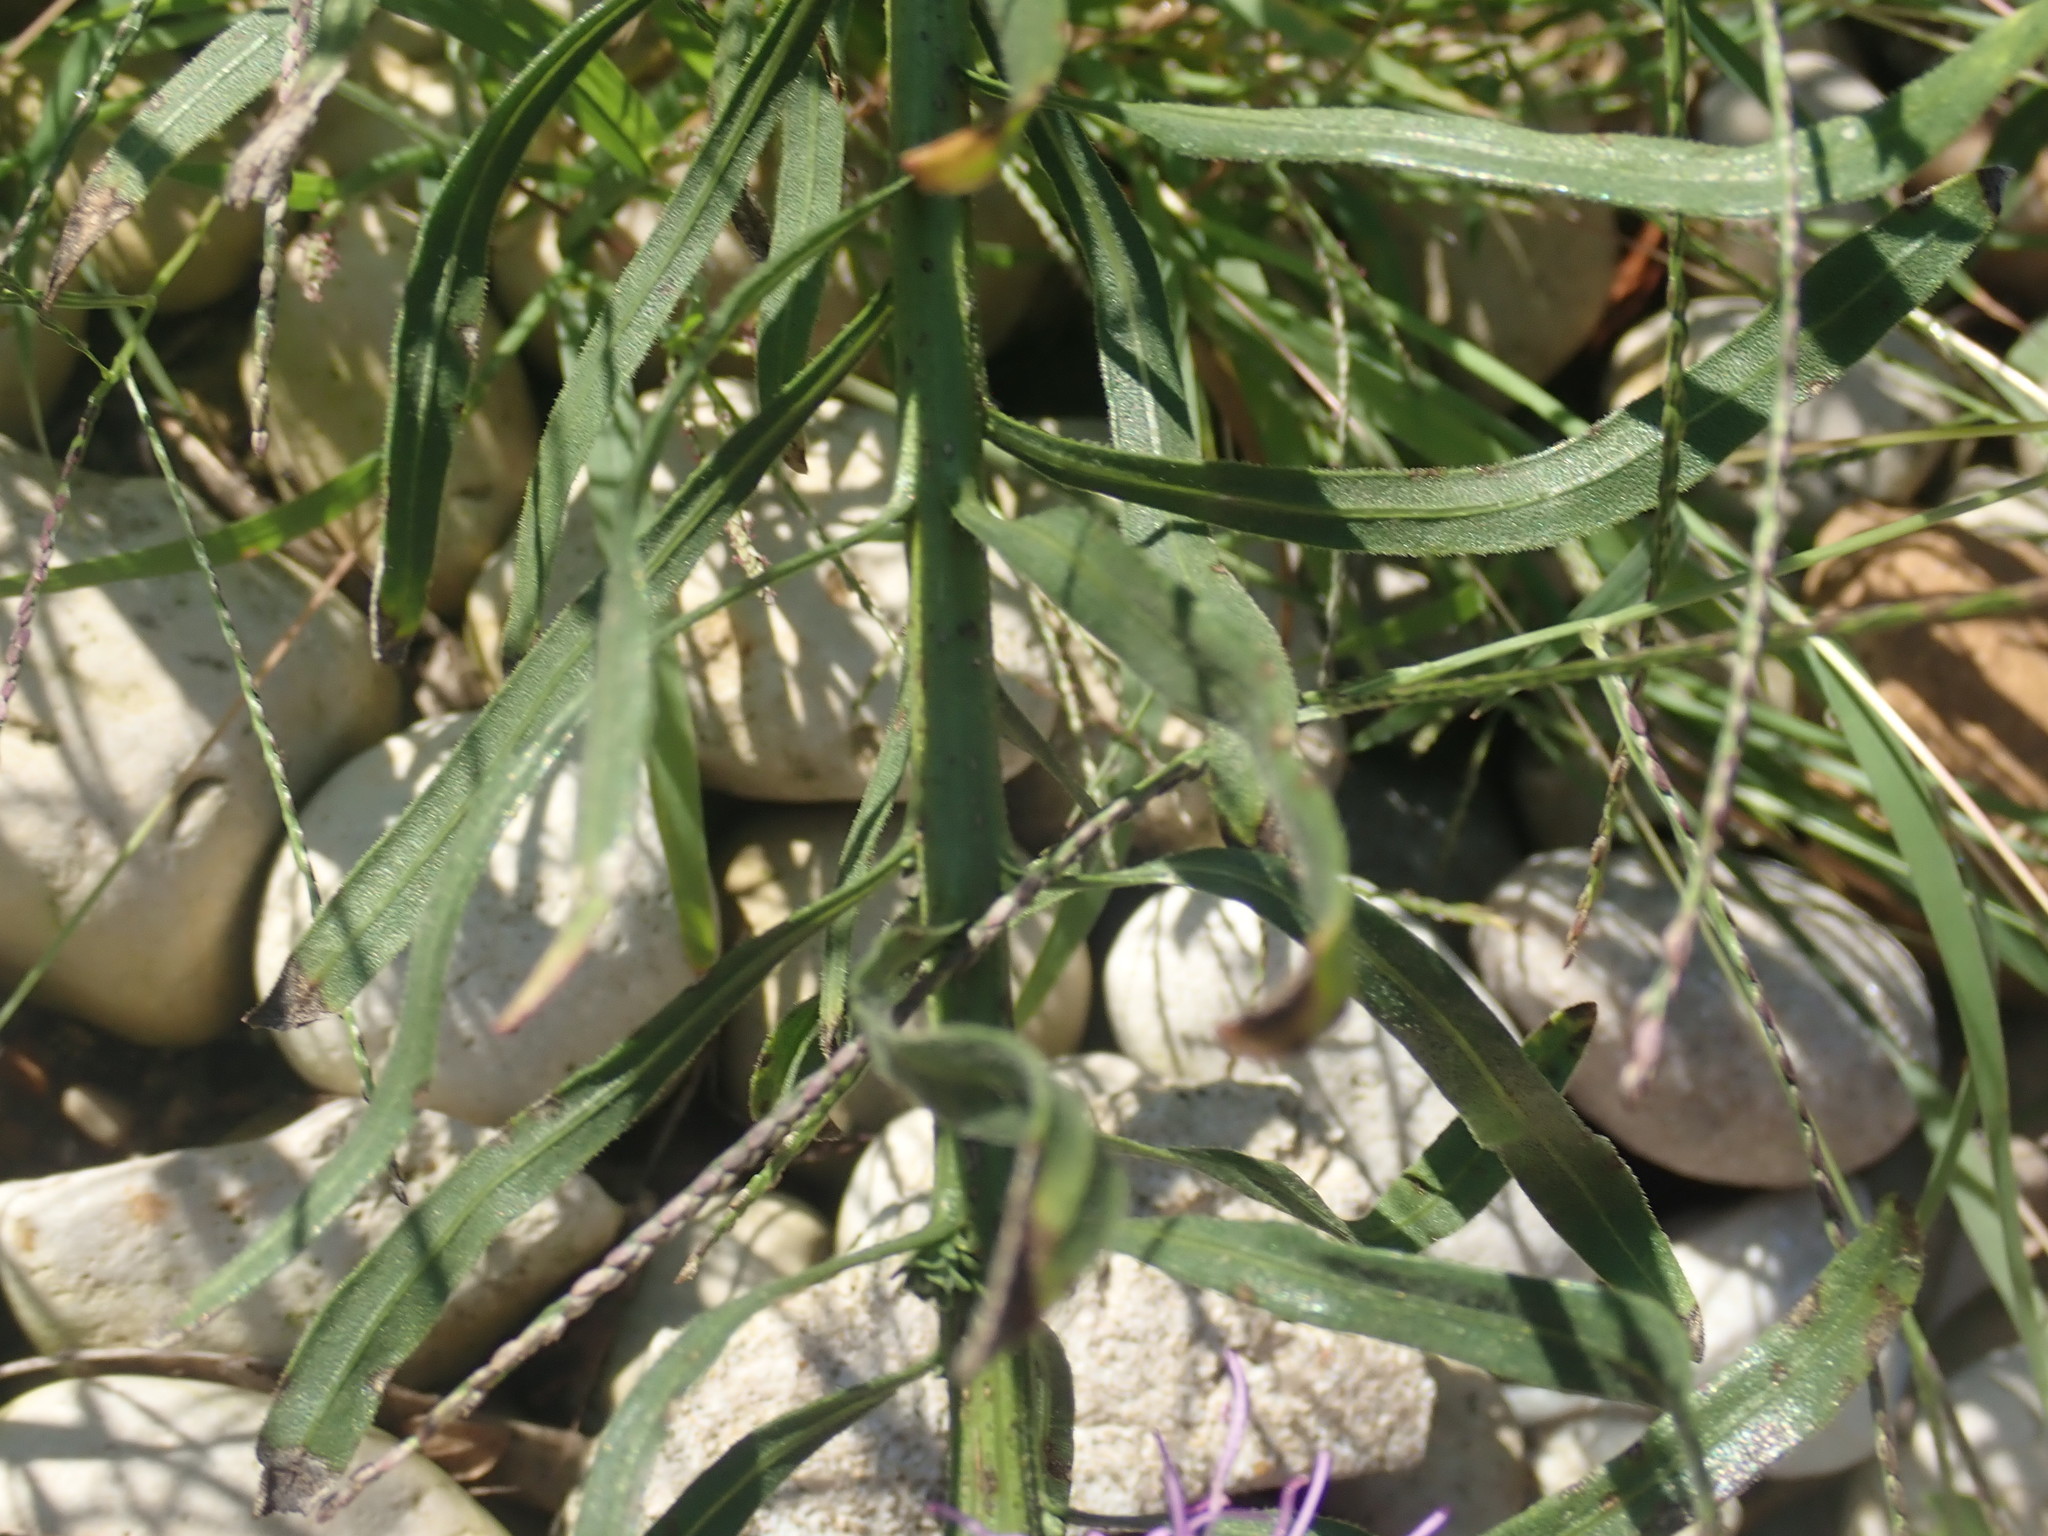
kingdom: Plantae
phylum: Tracheophyta
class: Magnoliopsida
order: Asterales
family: Asteraceae
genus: Liatris
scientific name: Liatris aspera
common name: Lacerate blazing-star
